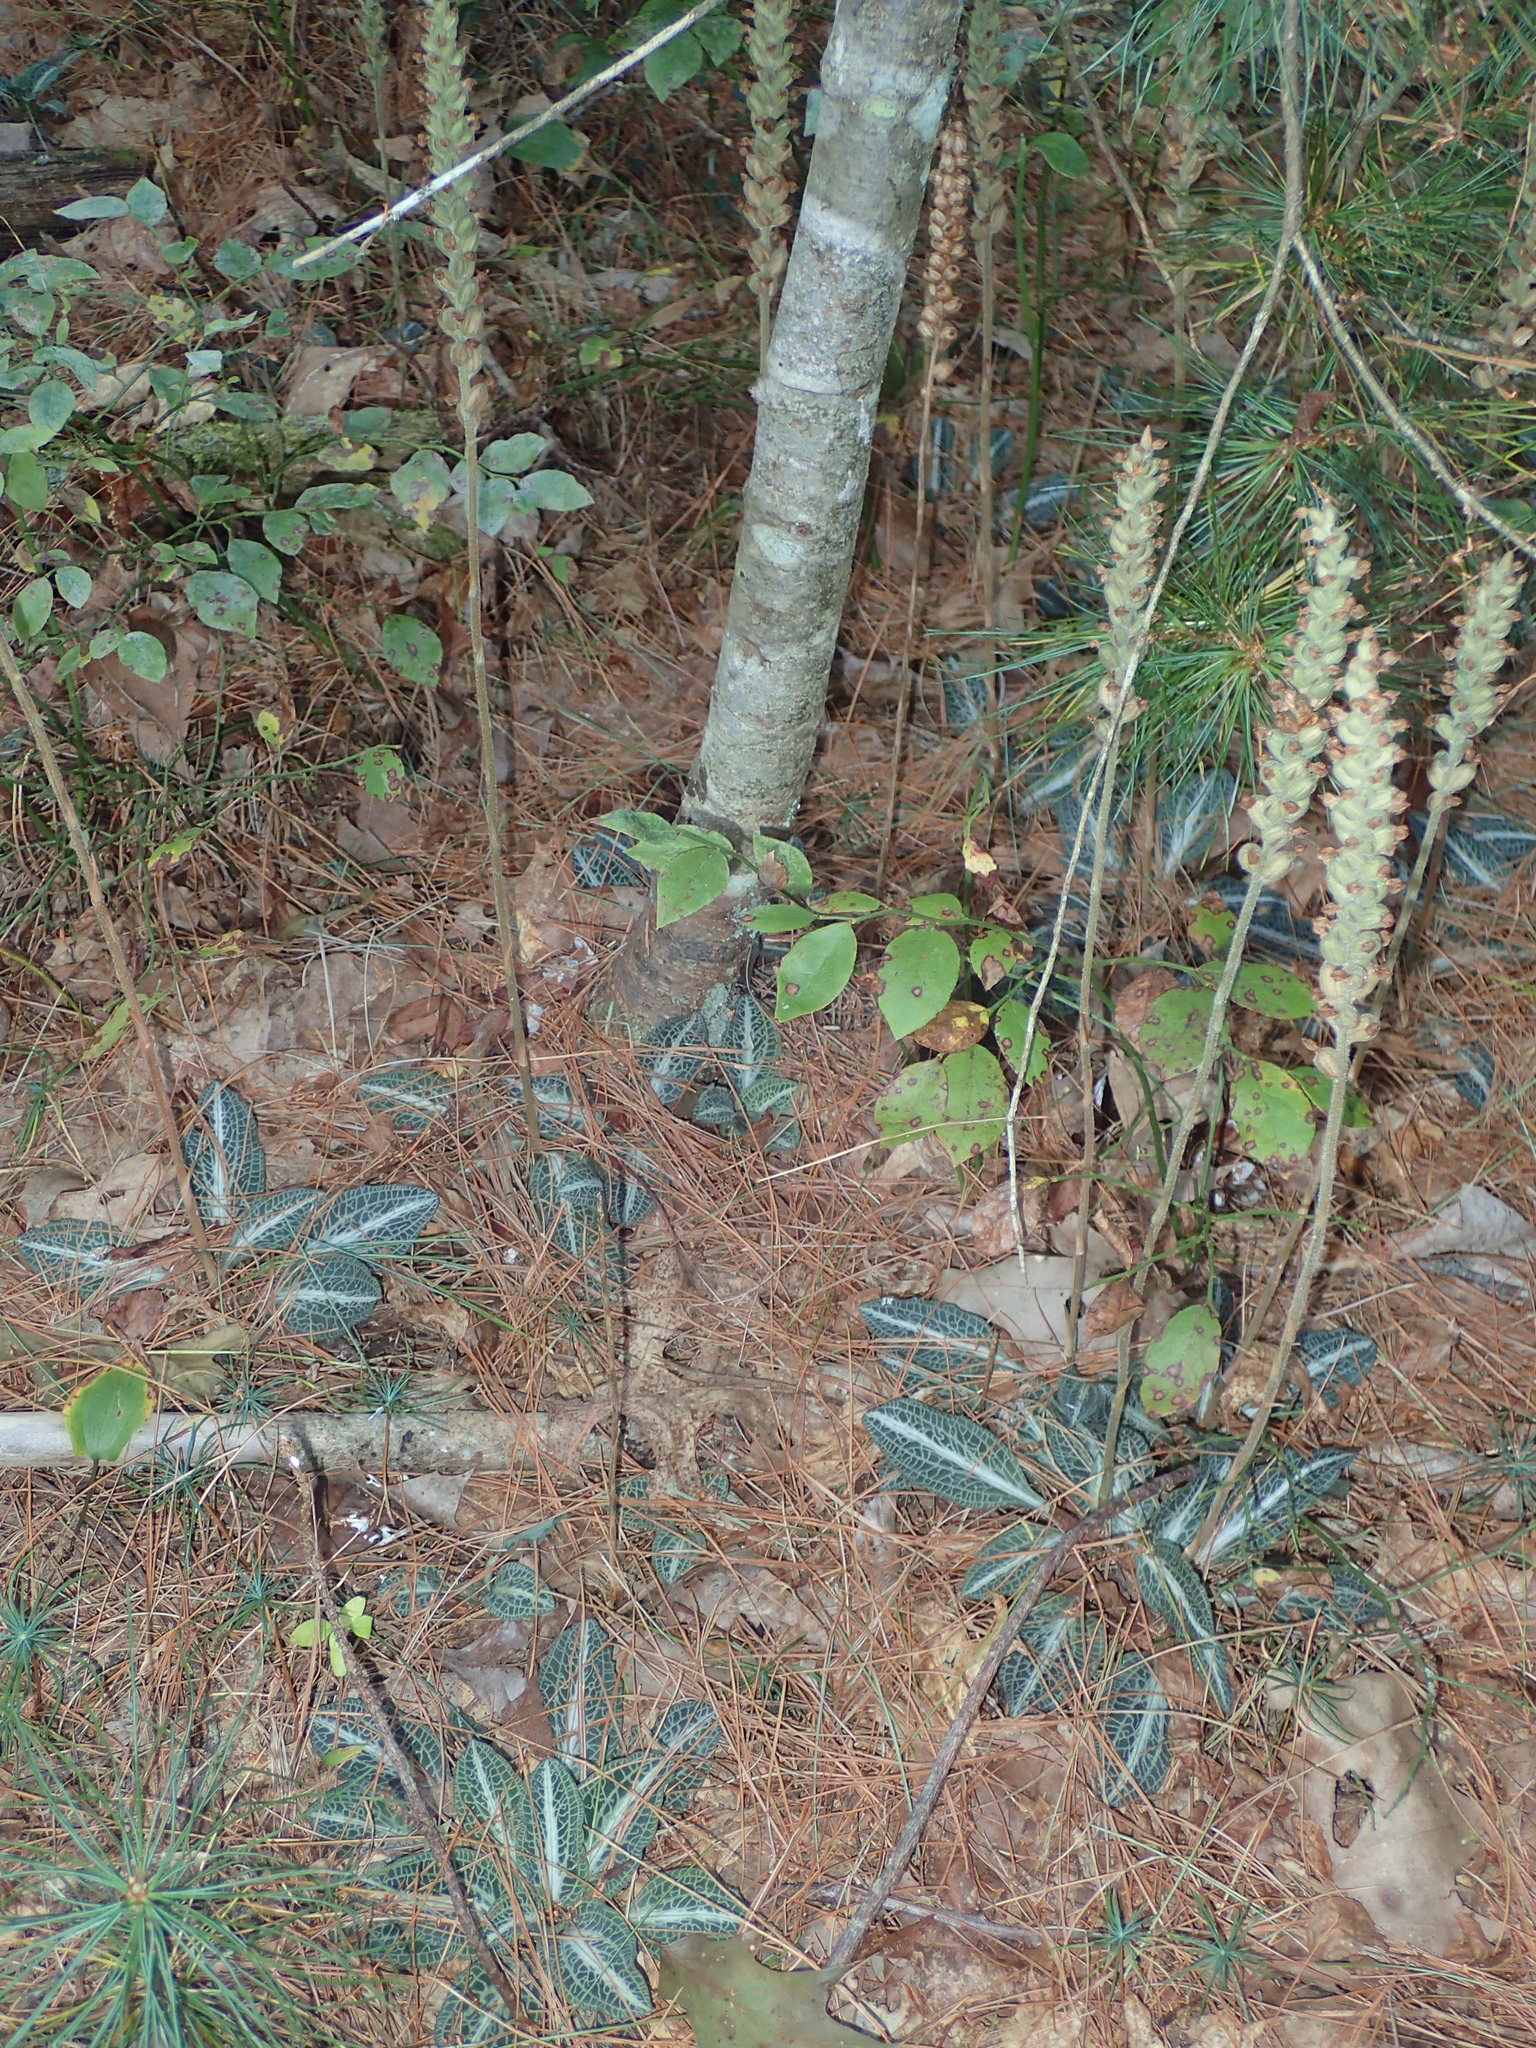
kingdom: Plantae
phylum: Tracheophyta
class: Liliopsida
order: Asparagales
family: Orchidaceae
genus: Goodyera
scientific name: Goodyera pubescens
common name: Downy rattlesnake-plantain
